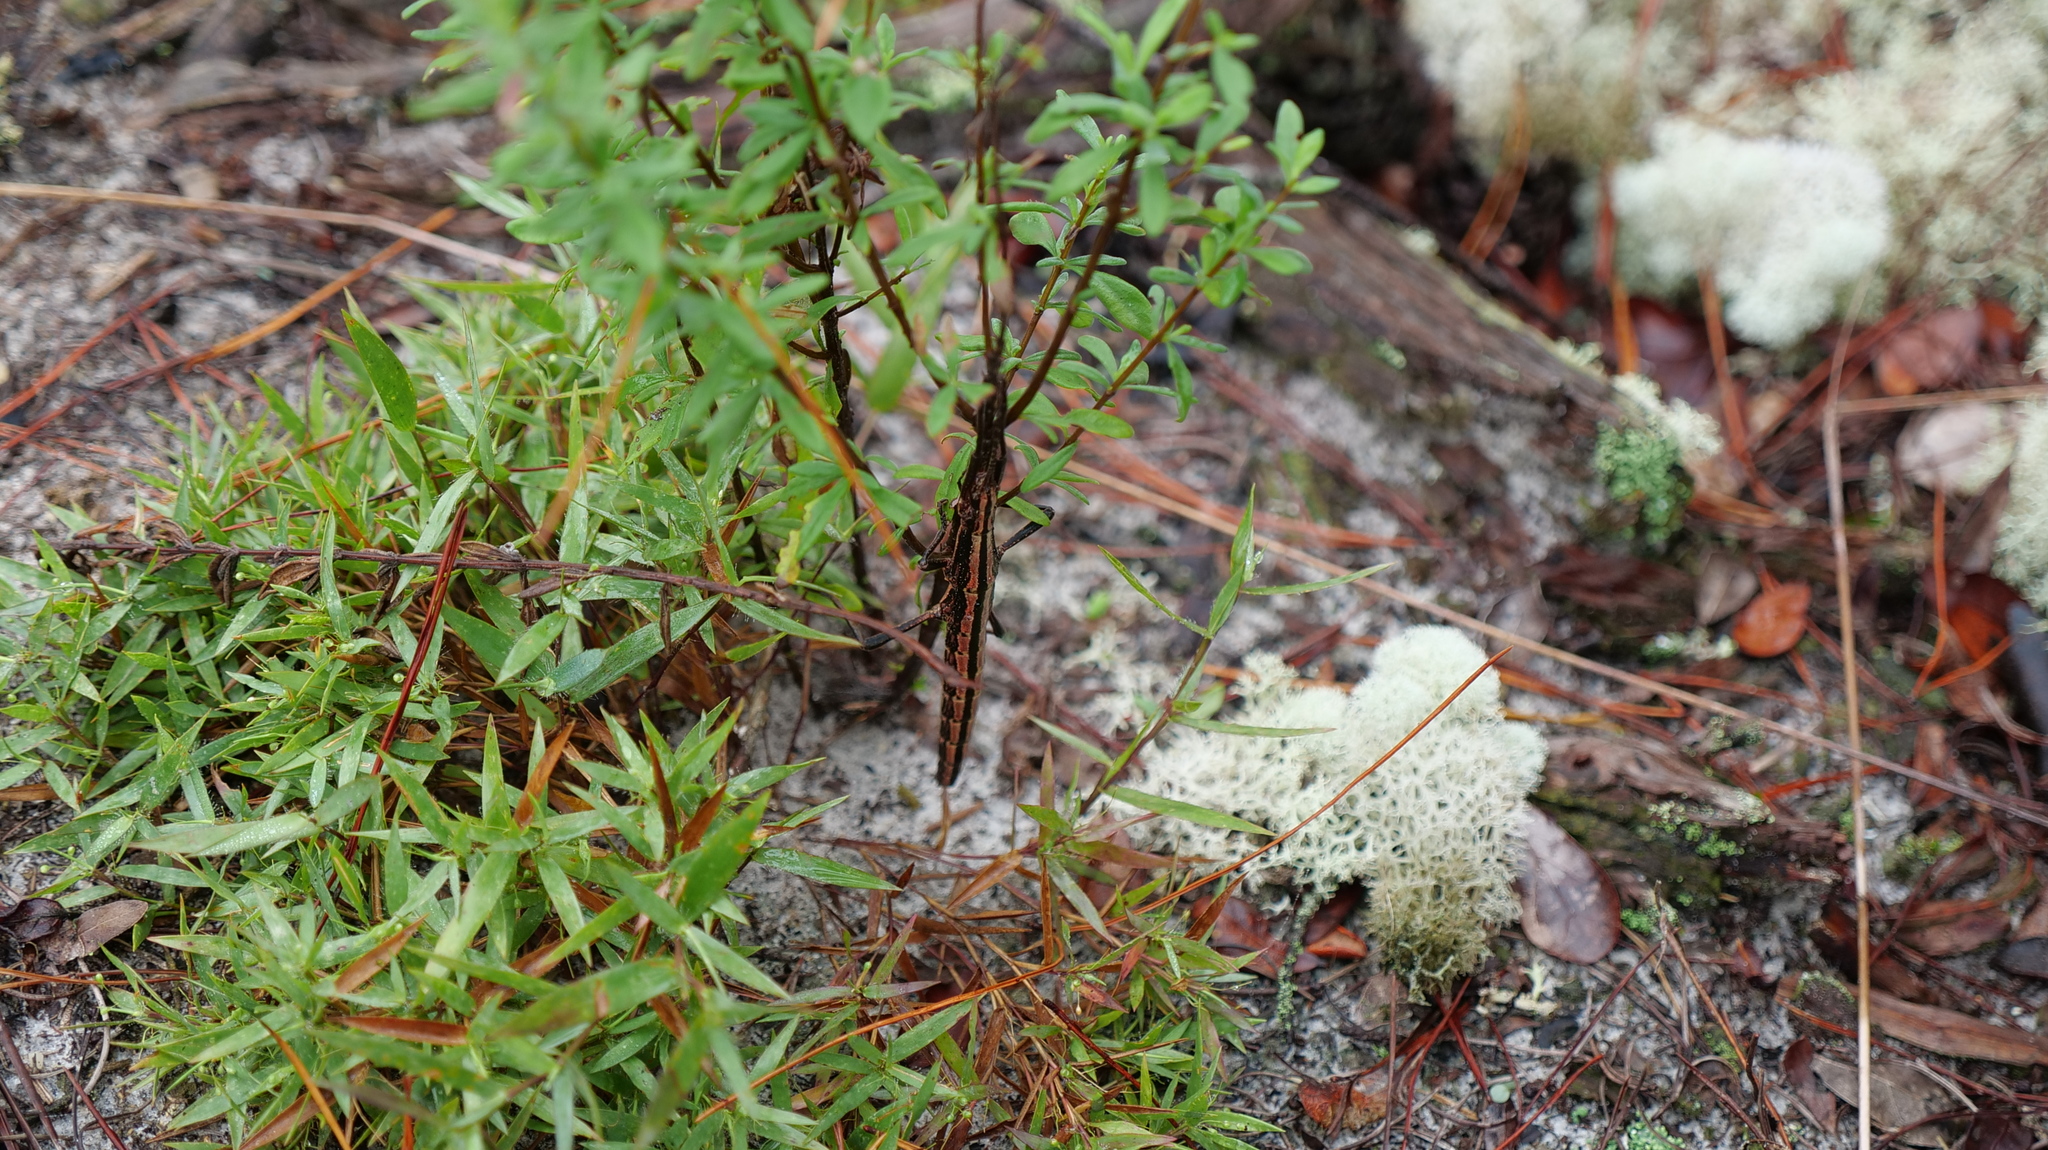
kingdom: Animalia
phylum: Arthropoda
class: Insecta
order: Phasmida
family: Pseudophasmatidae
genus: Anisomorpha
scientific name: Anisomorpha buprestoides
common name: Florida stick insect
